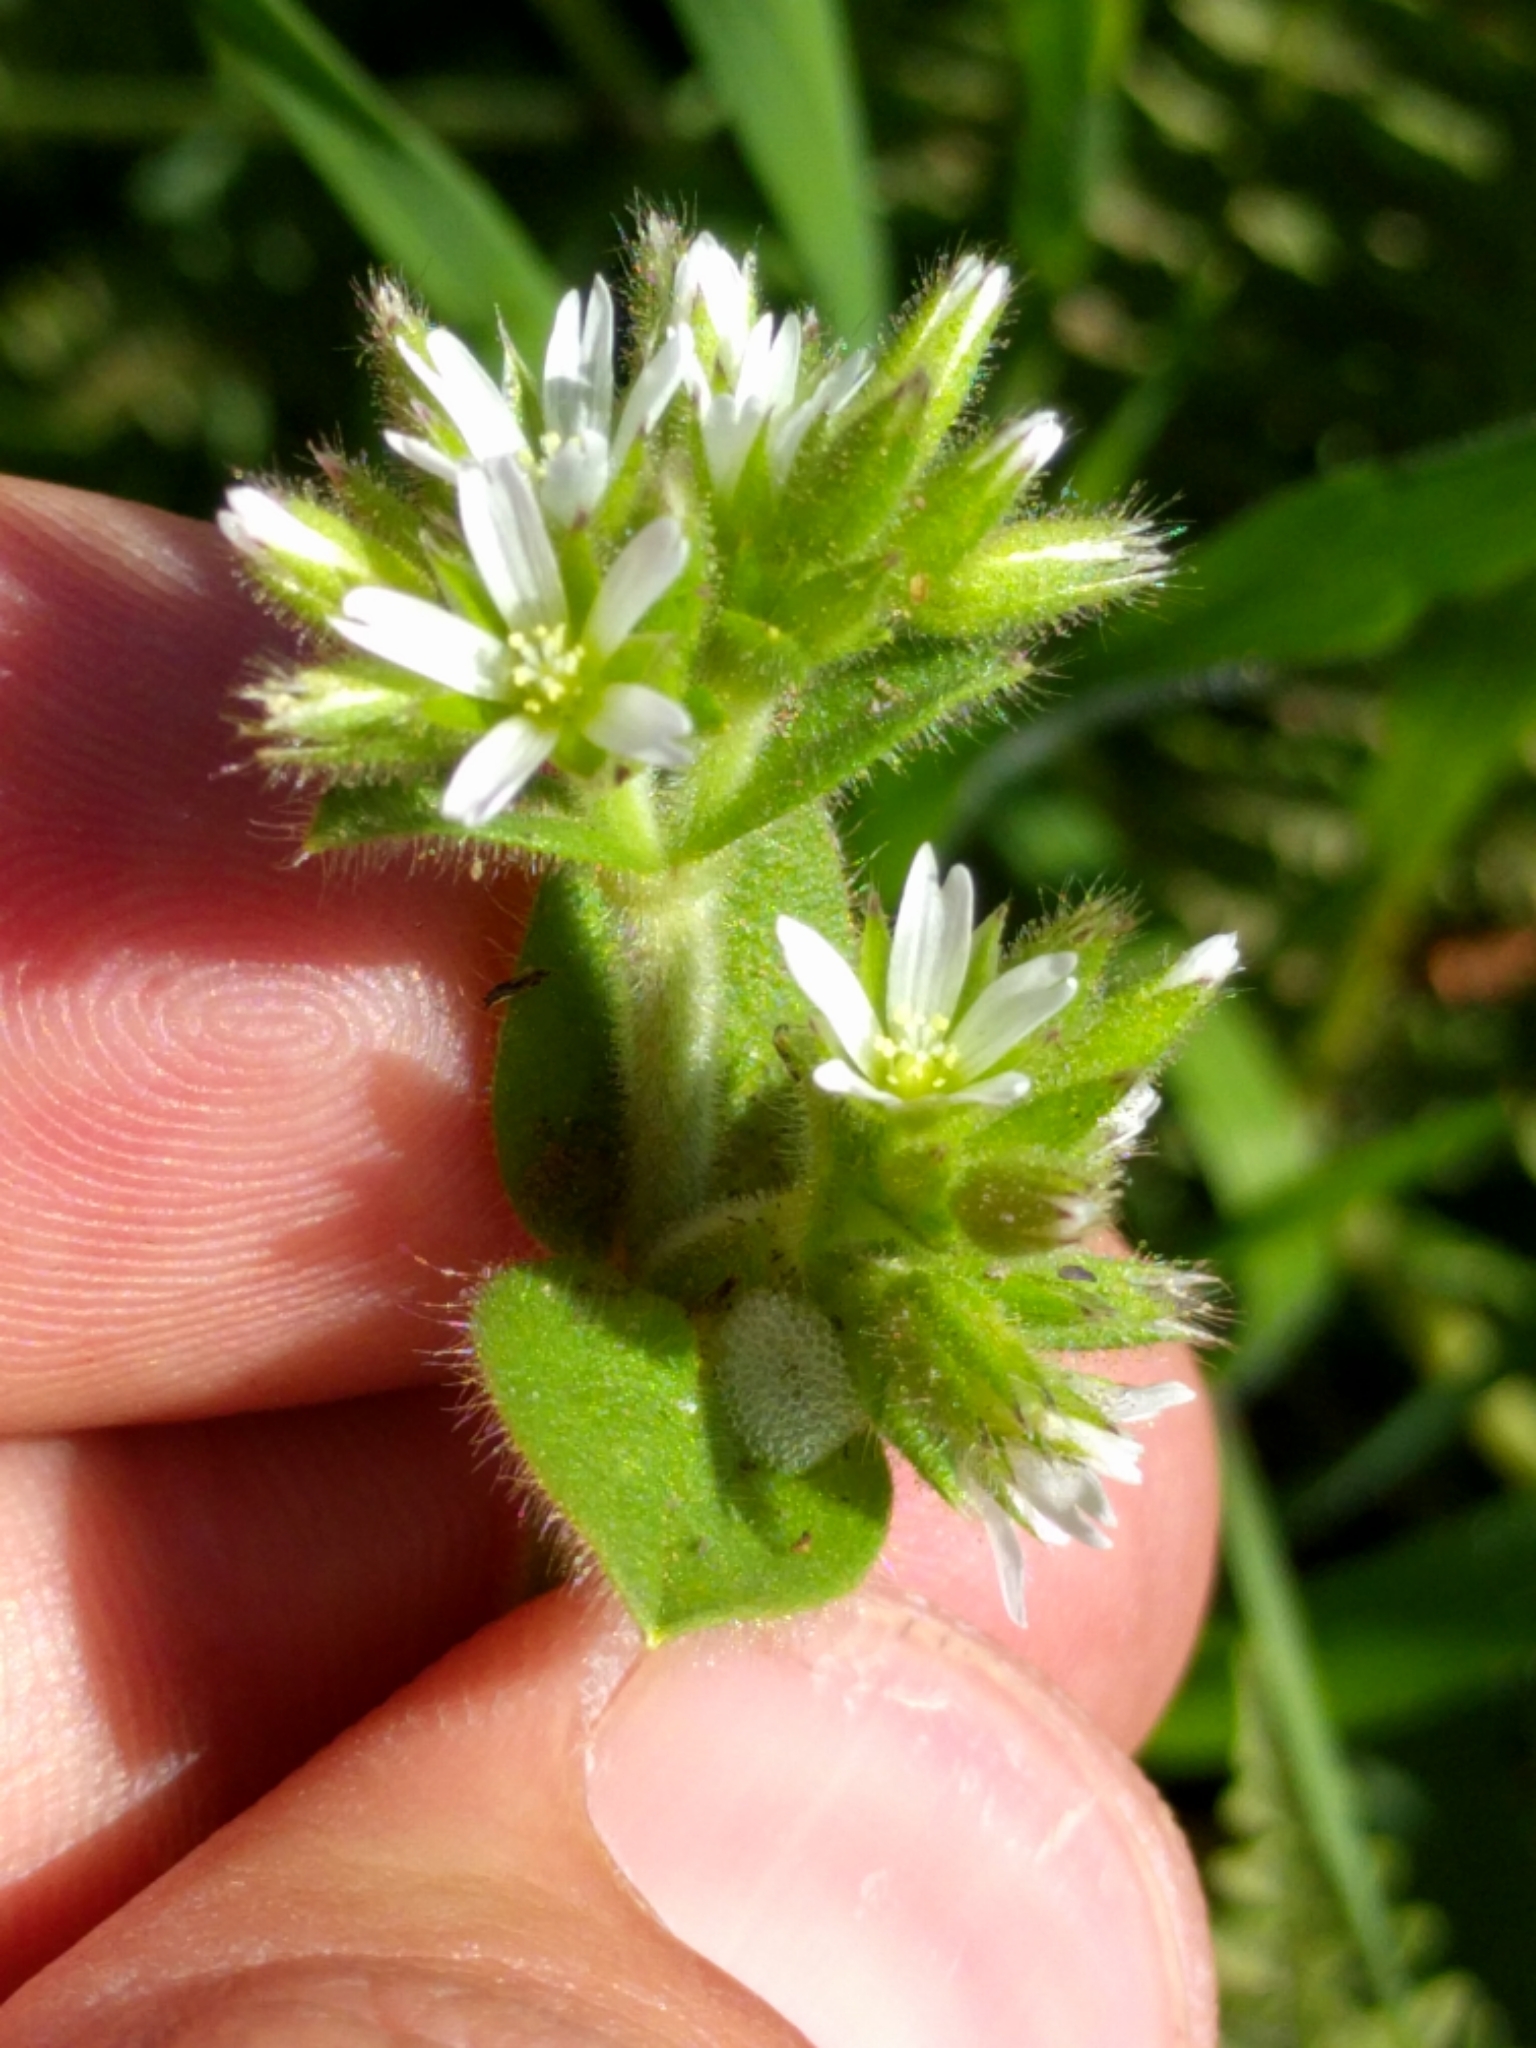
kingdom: Plantae
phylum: Tracheophyta
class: Magnoliopsida
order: Caryophyllales
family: Caryophyllaceae
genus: Cerastium
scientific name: Cerastium glomeratum
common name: Sticky chickweed
